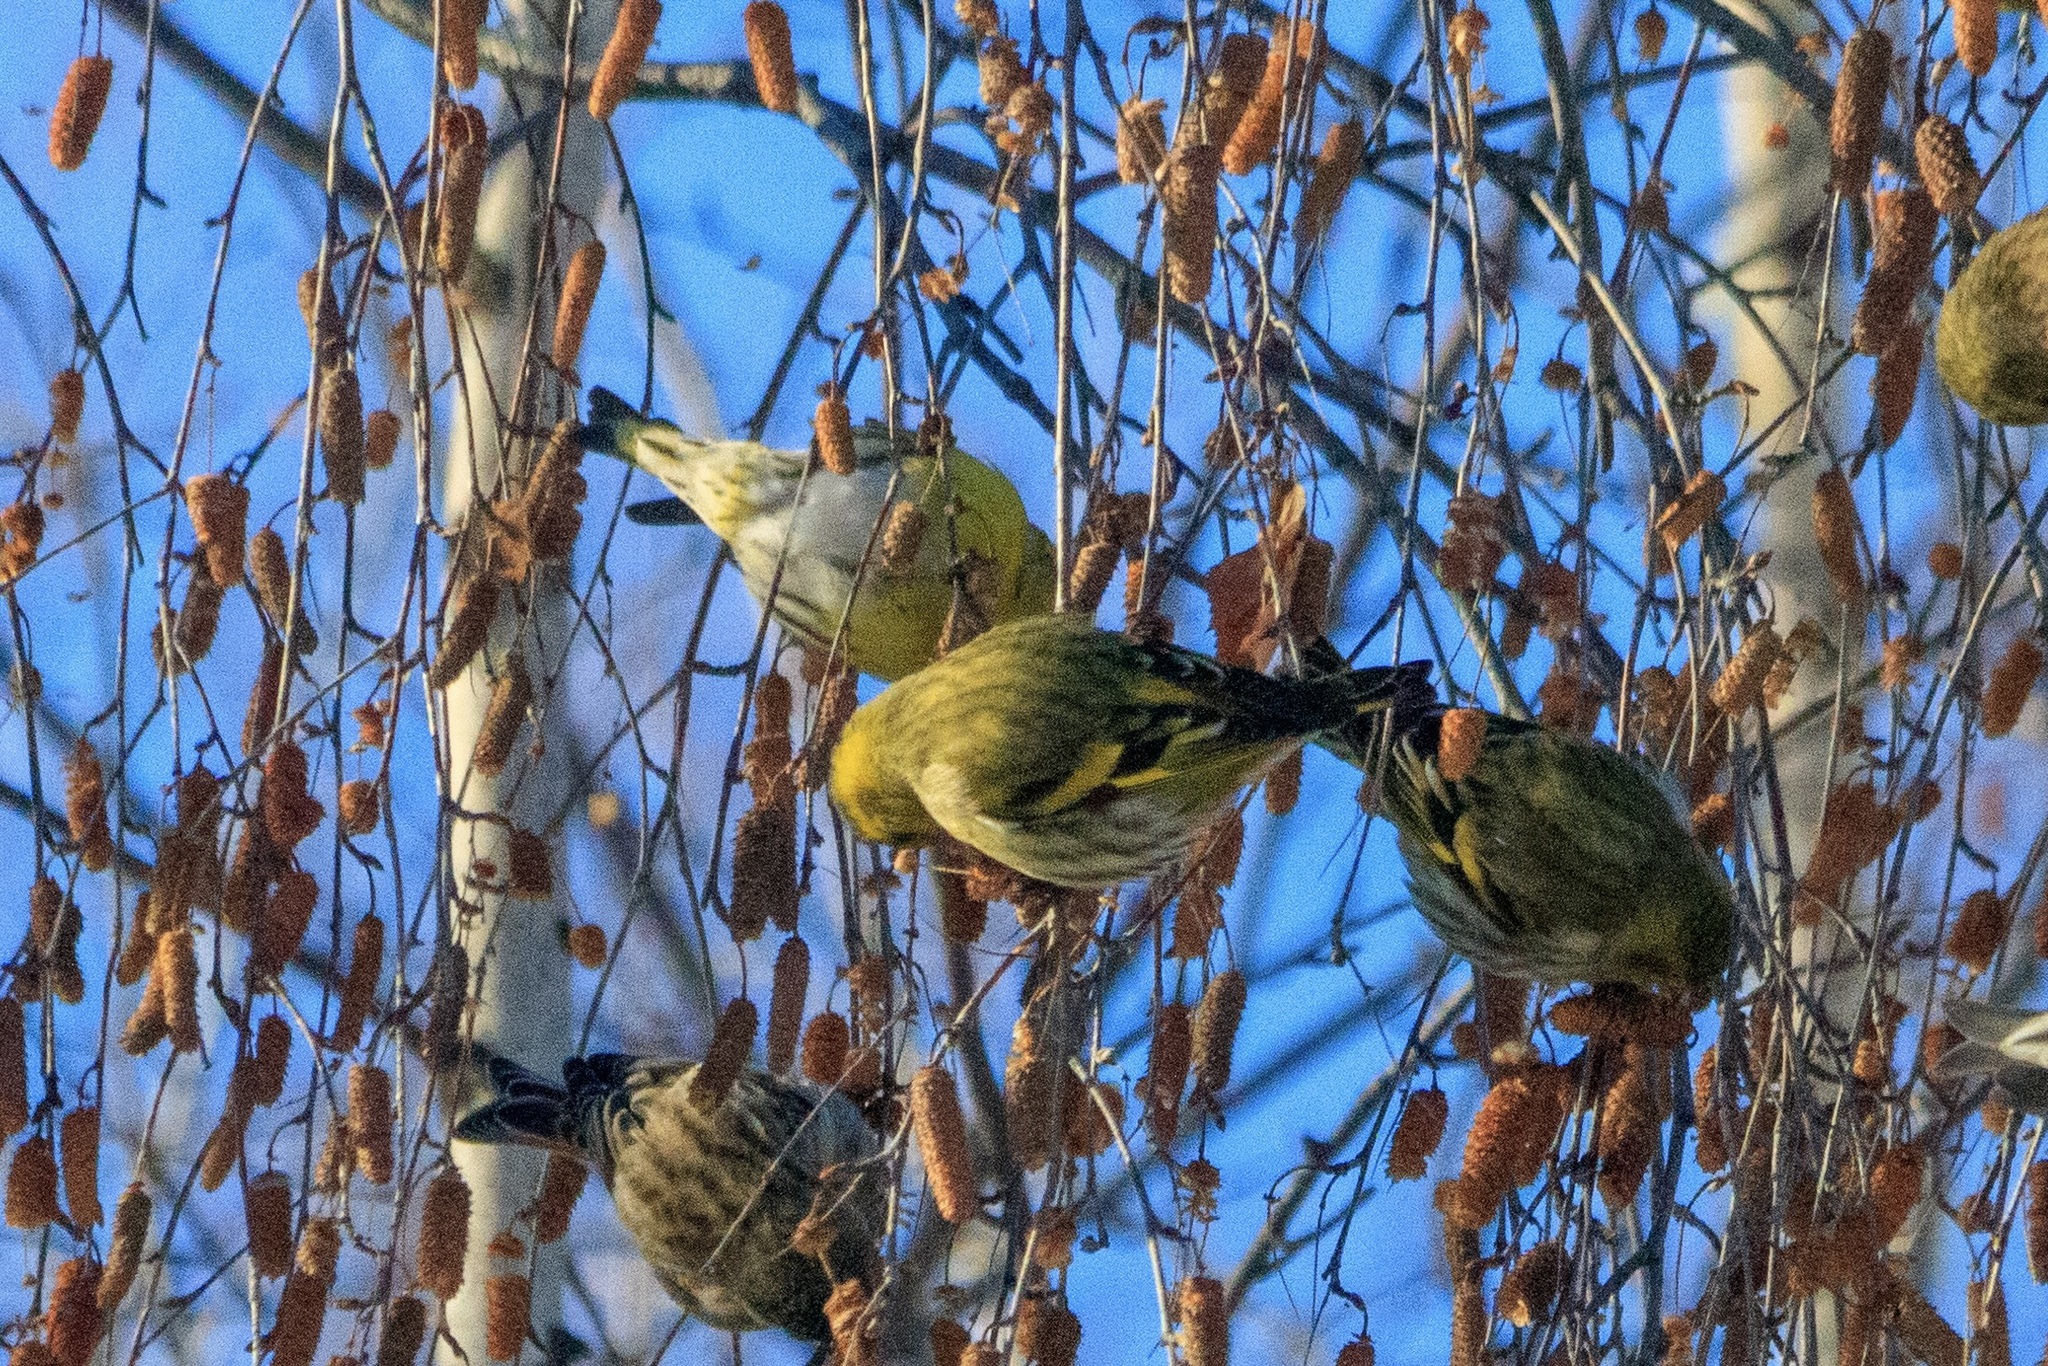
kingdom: Animalia
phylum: Chordata
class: Aves
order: Passeriformes
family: Fringillidae
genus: Spinus
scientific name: Spinus spinus
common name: Eurasian siskin
